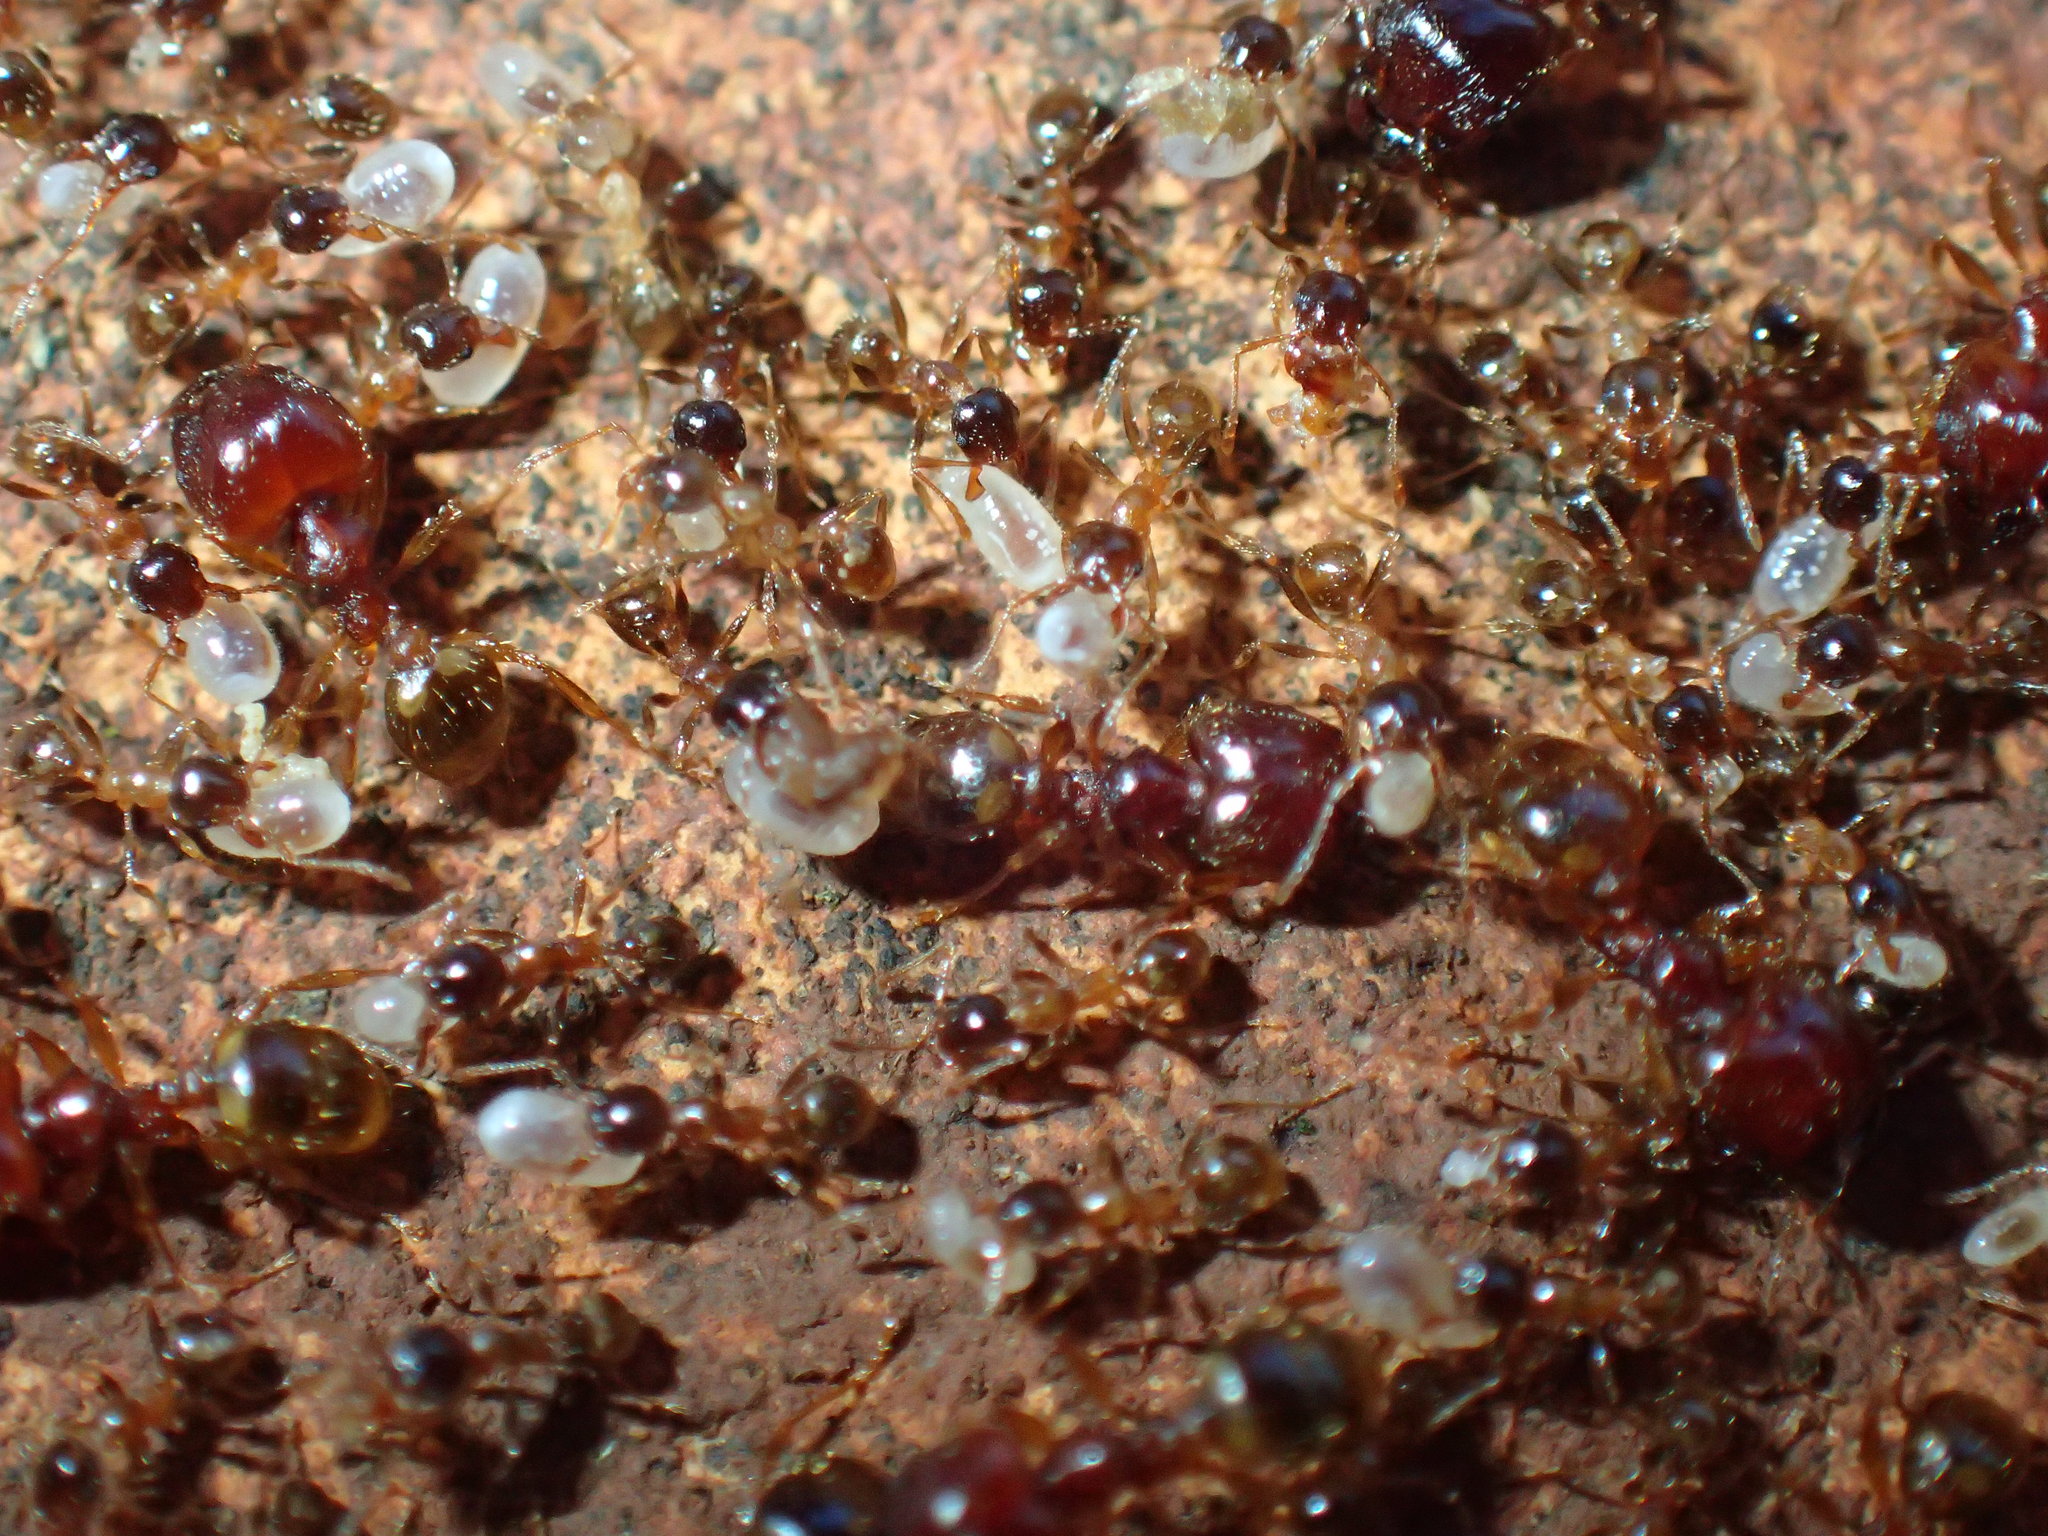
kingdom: Animalia
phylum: Arthropoda
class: Insecta
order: Hymenoptera
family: Formicidae
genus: Pheidole
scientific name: Pheidole megacephala
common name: Bigheaded ant
